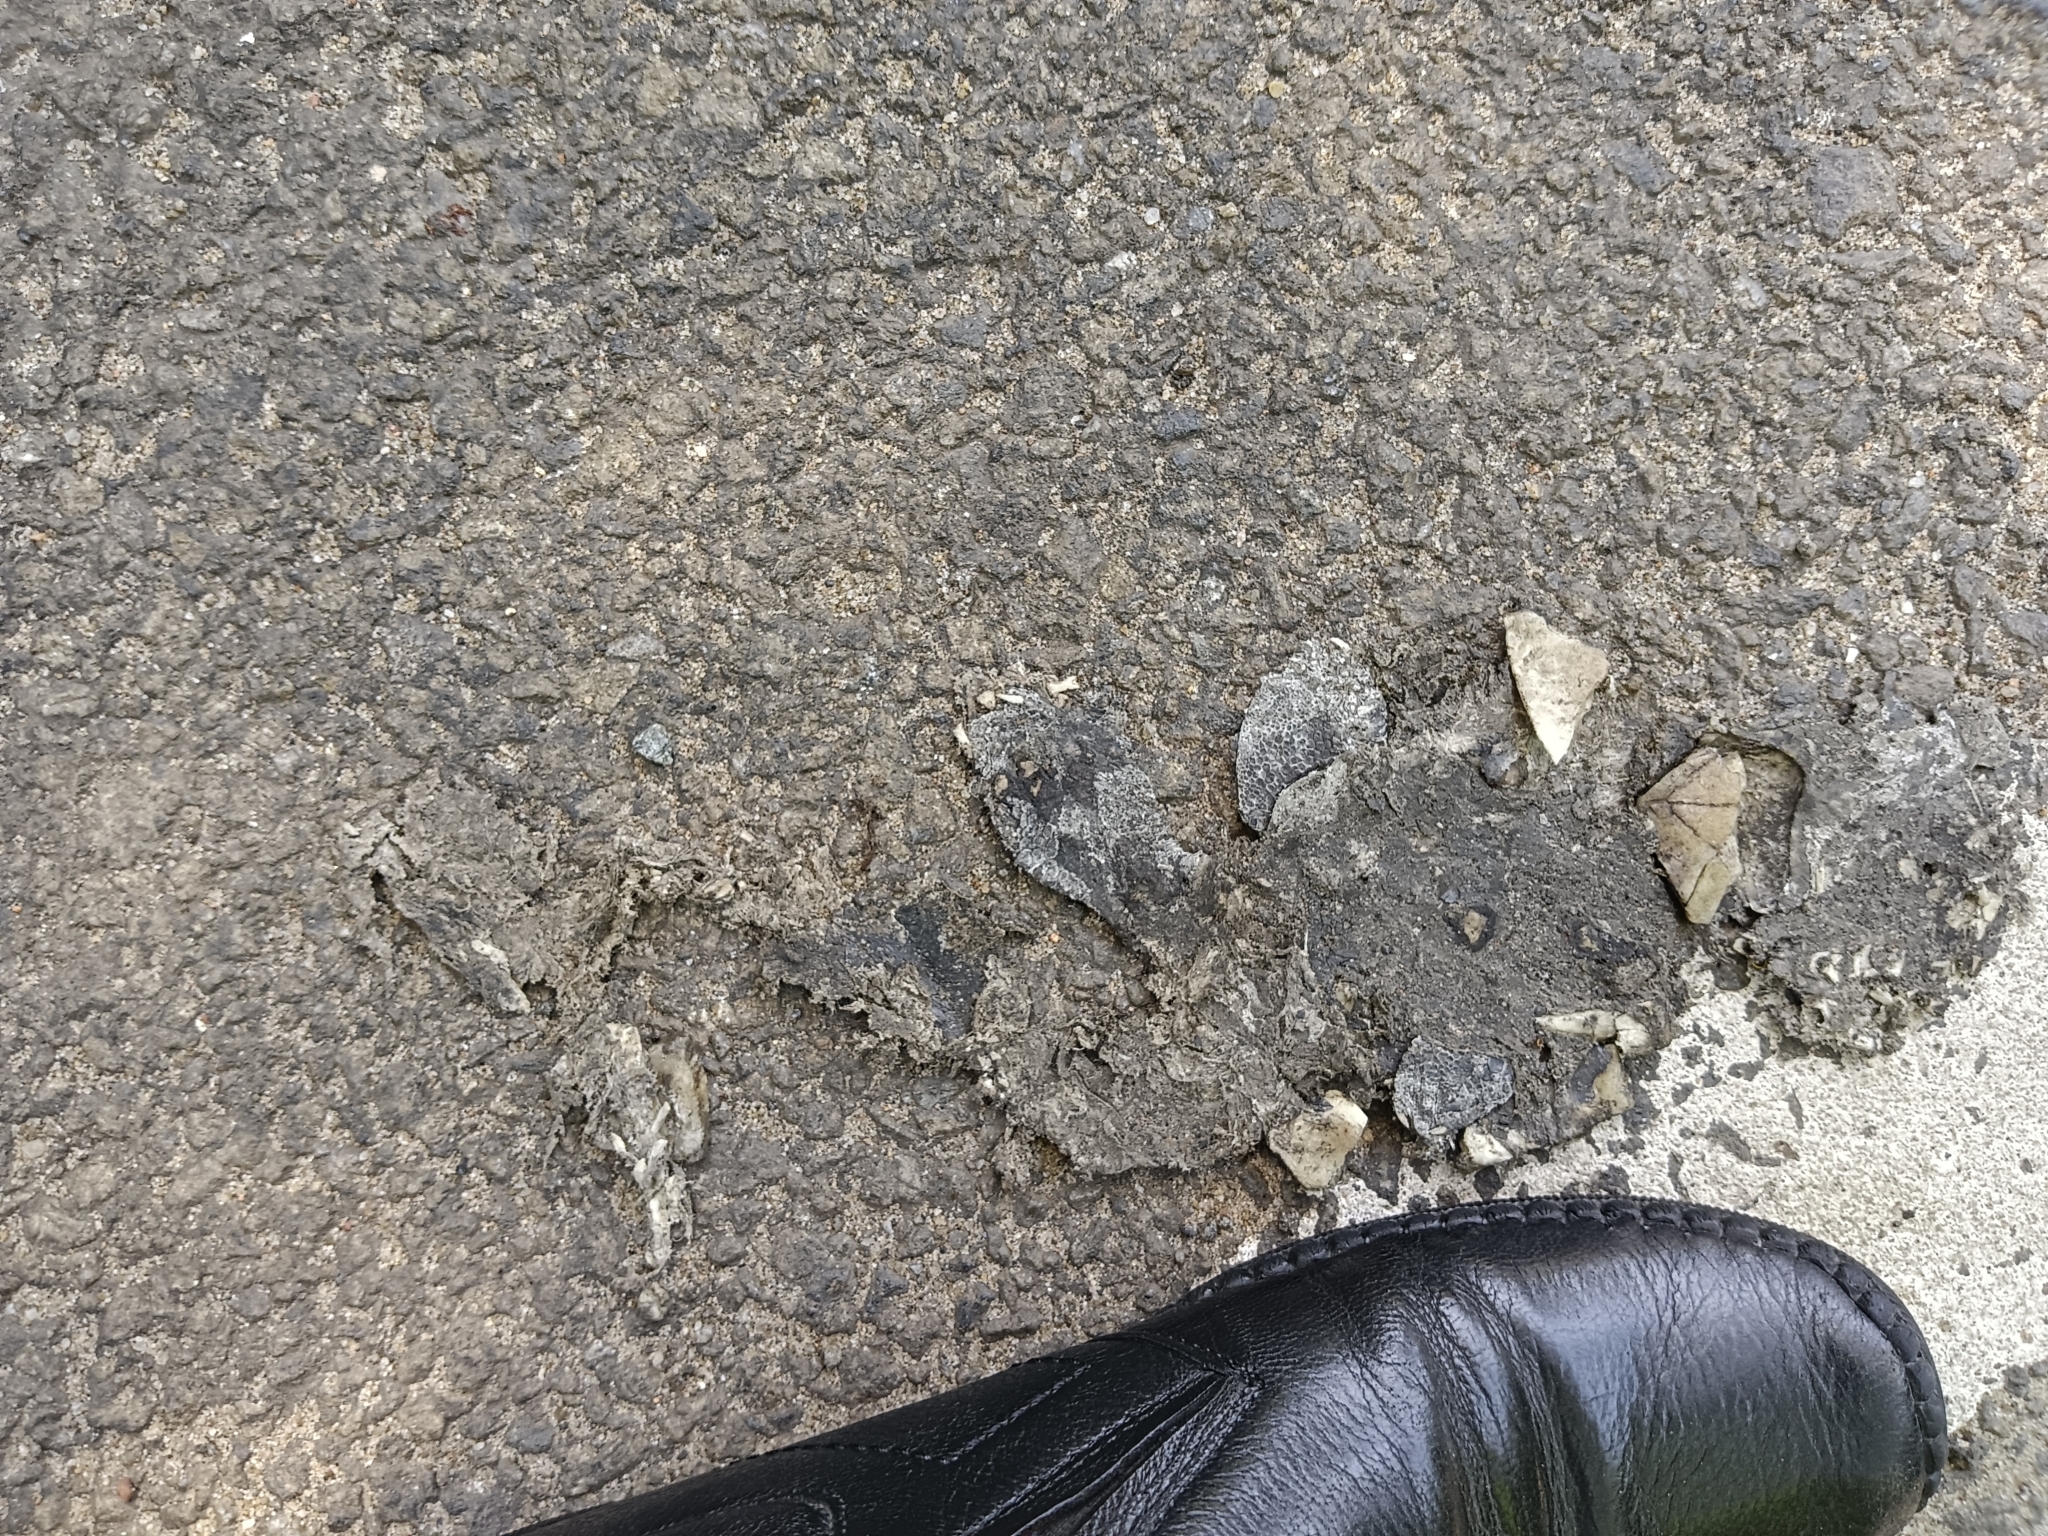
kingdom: Animalia
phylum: Chordata
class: Testudines
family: Geoemydidae
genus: Melanochelys
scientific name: Melanochelys trijuga
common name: Indian black turtle
